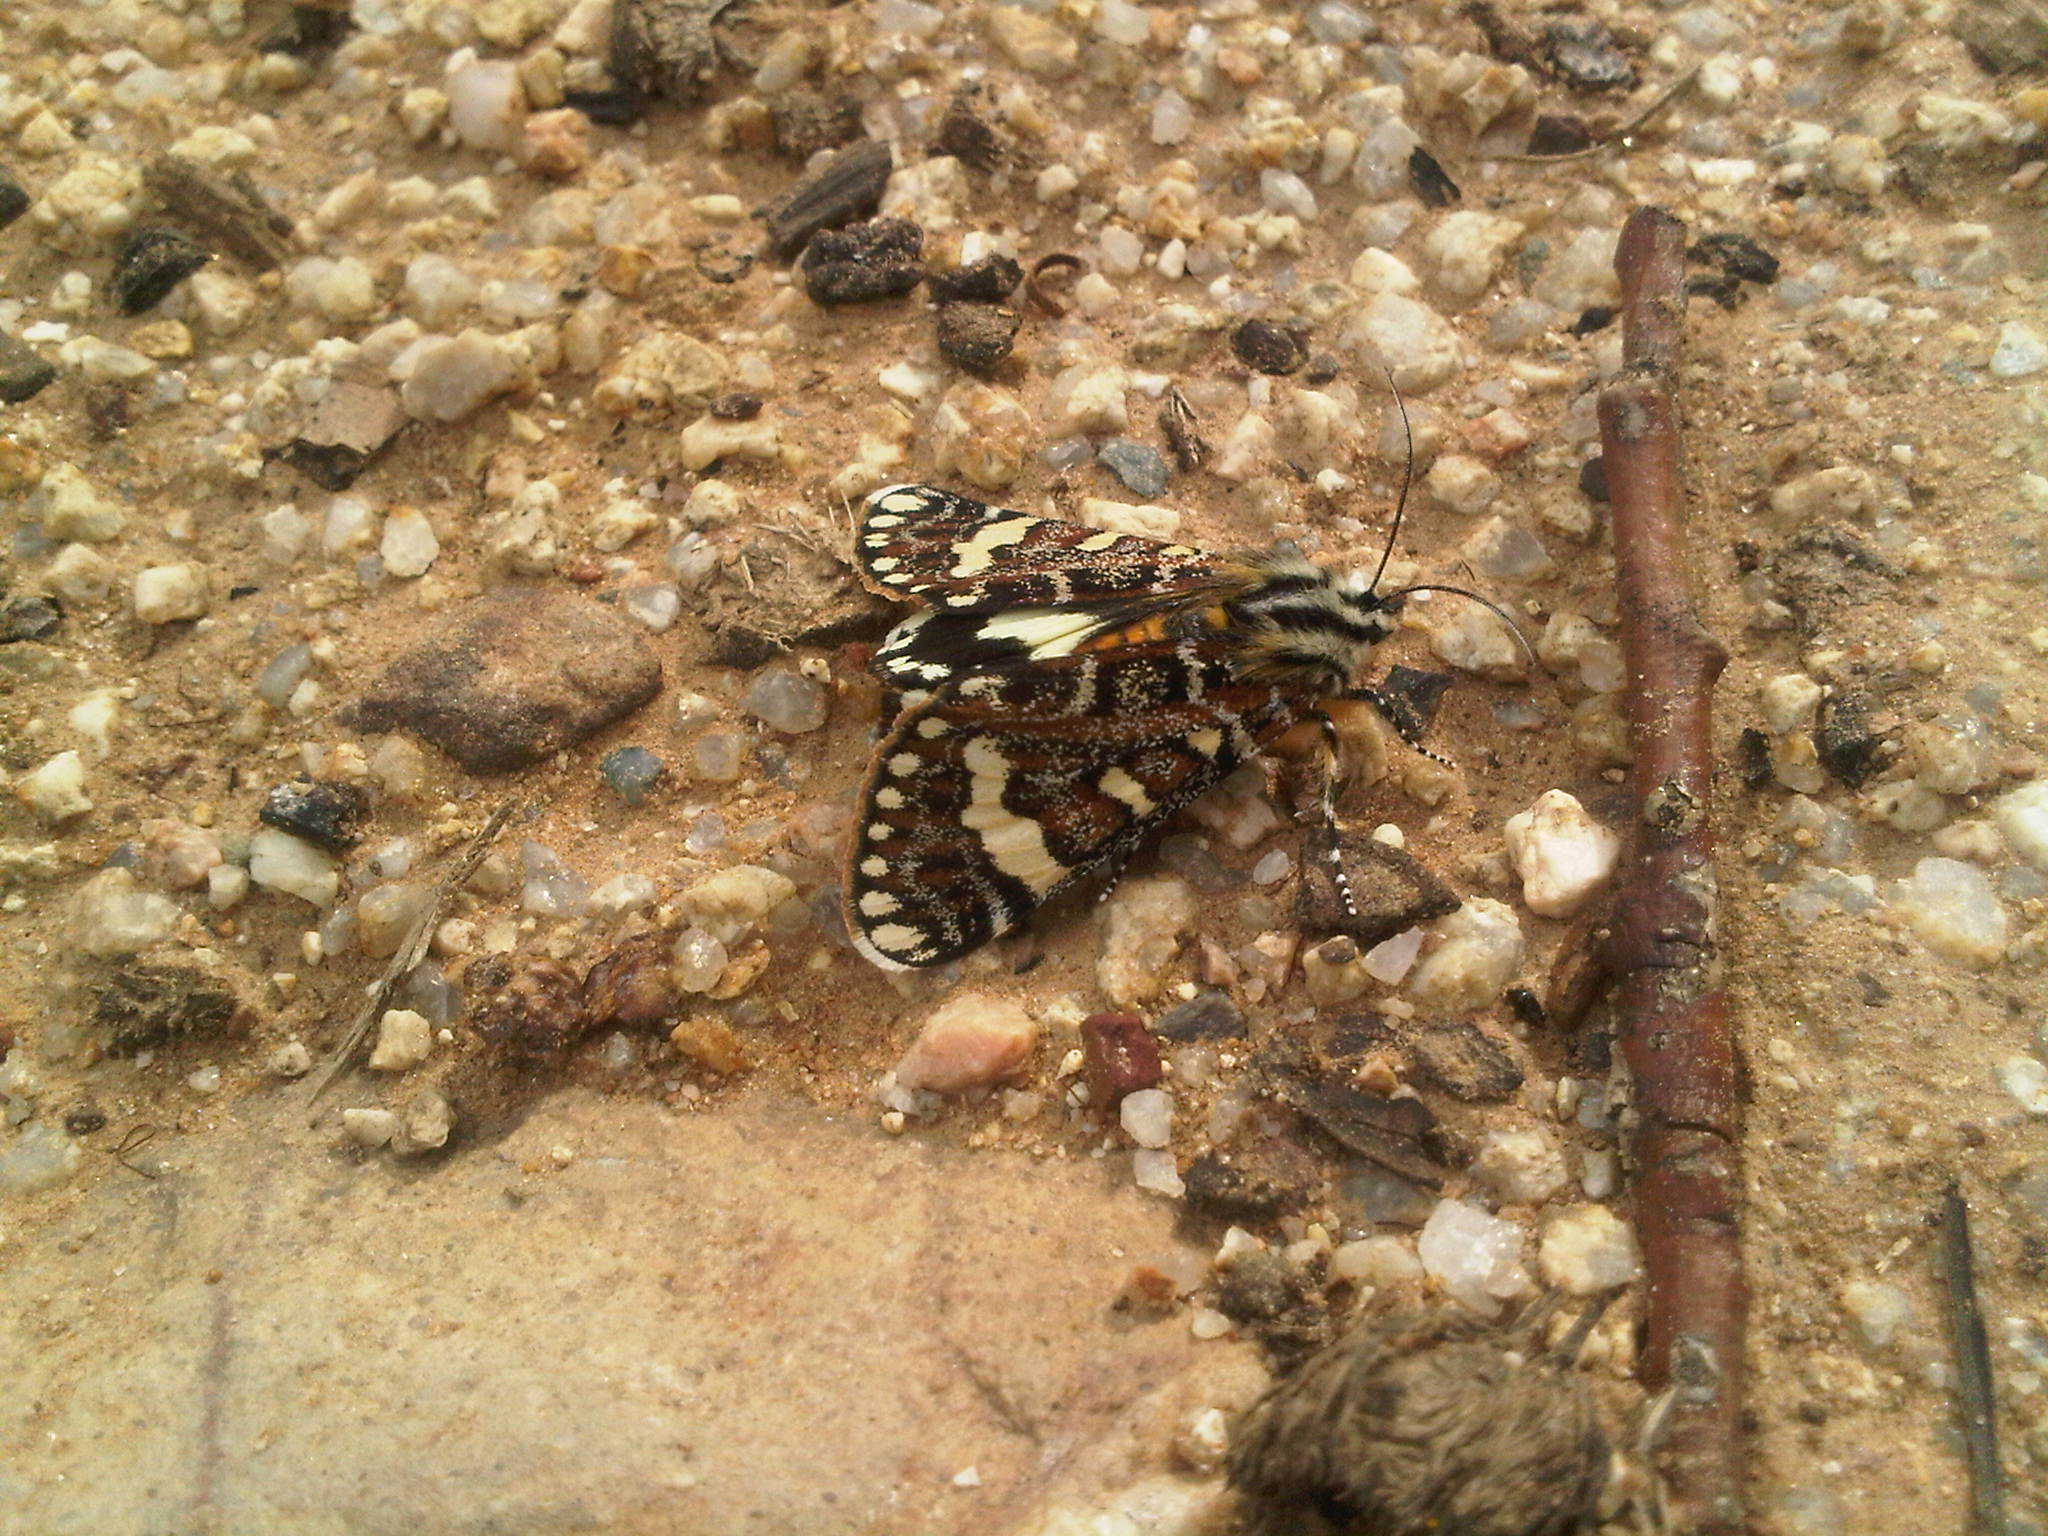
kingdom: Animalia
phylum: Arthropoda
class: Insecta
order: Lepidoptera
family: Noctuidae
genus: Apina
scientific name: Apina callisto
